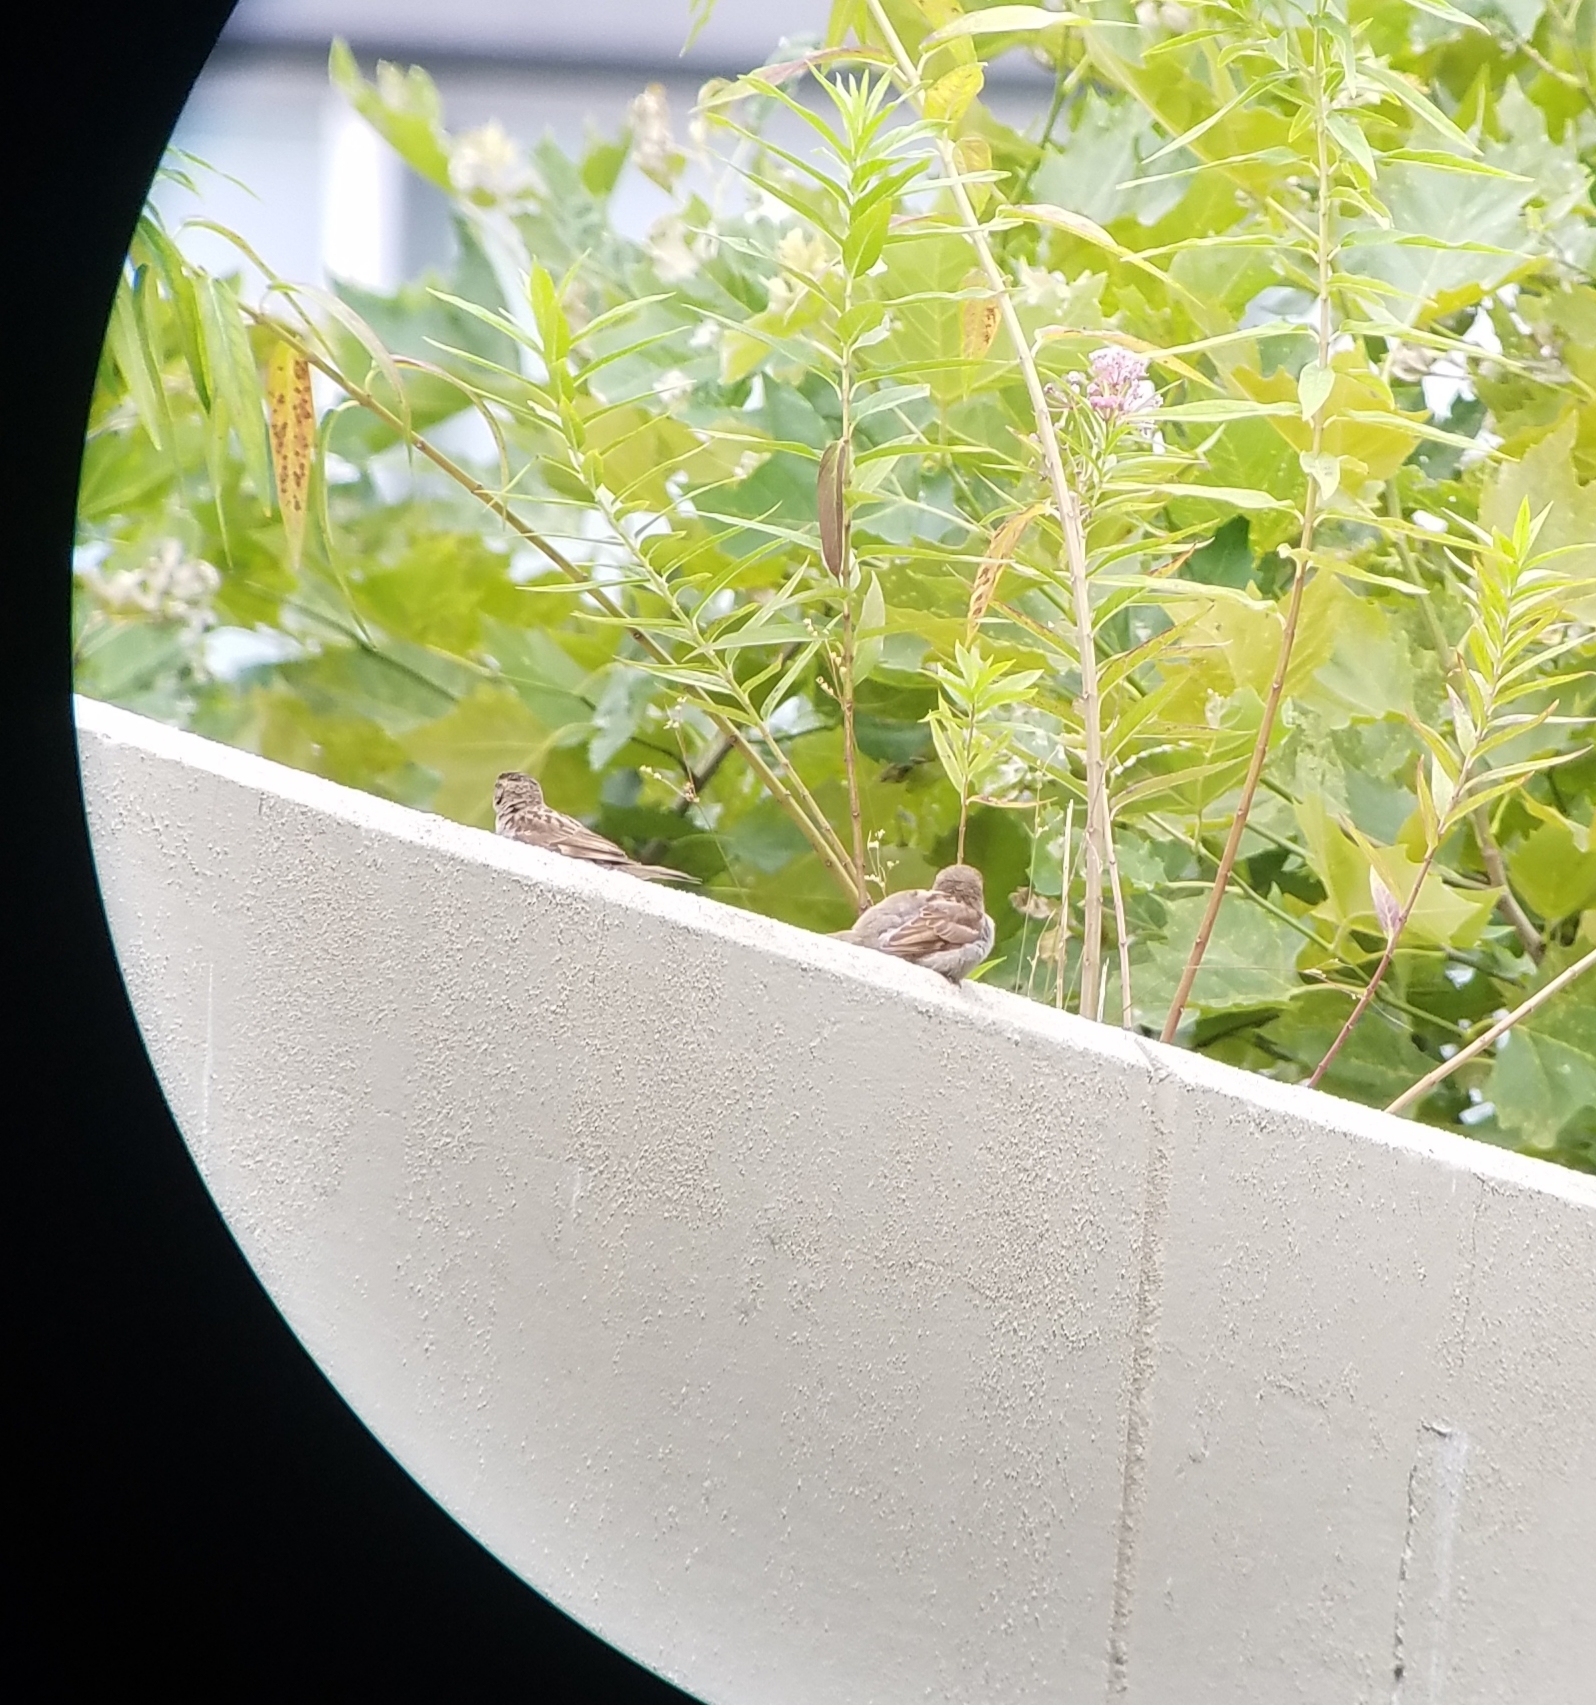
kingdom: Animalia
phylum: Chordata
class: Aves
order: Passeriformes
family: Passeridae
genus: Passer
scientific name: Passer domesticus
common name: House sparrow
